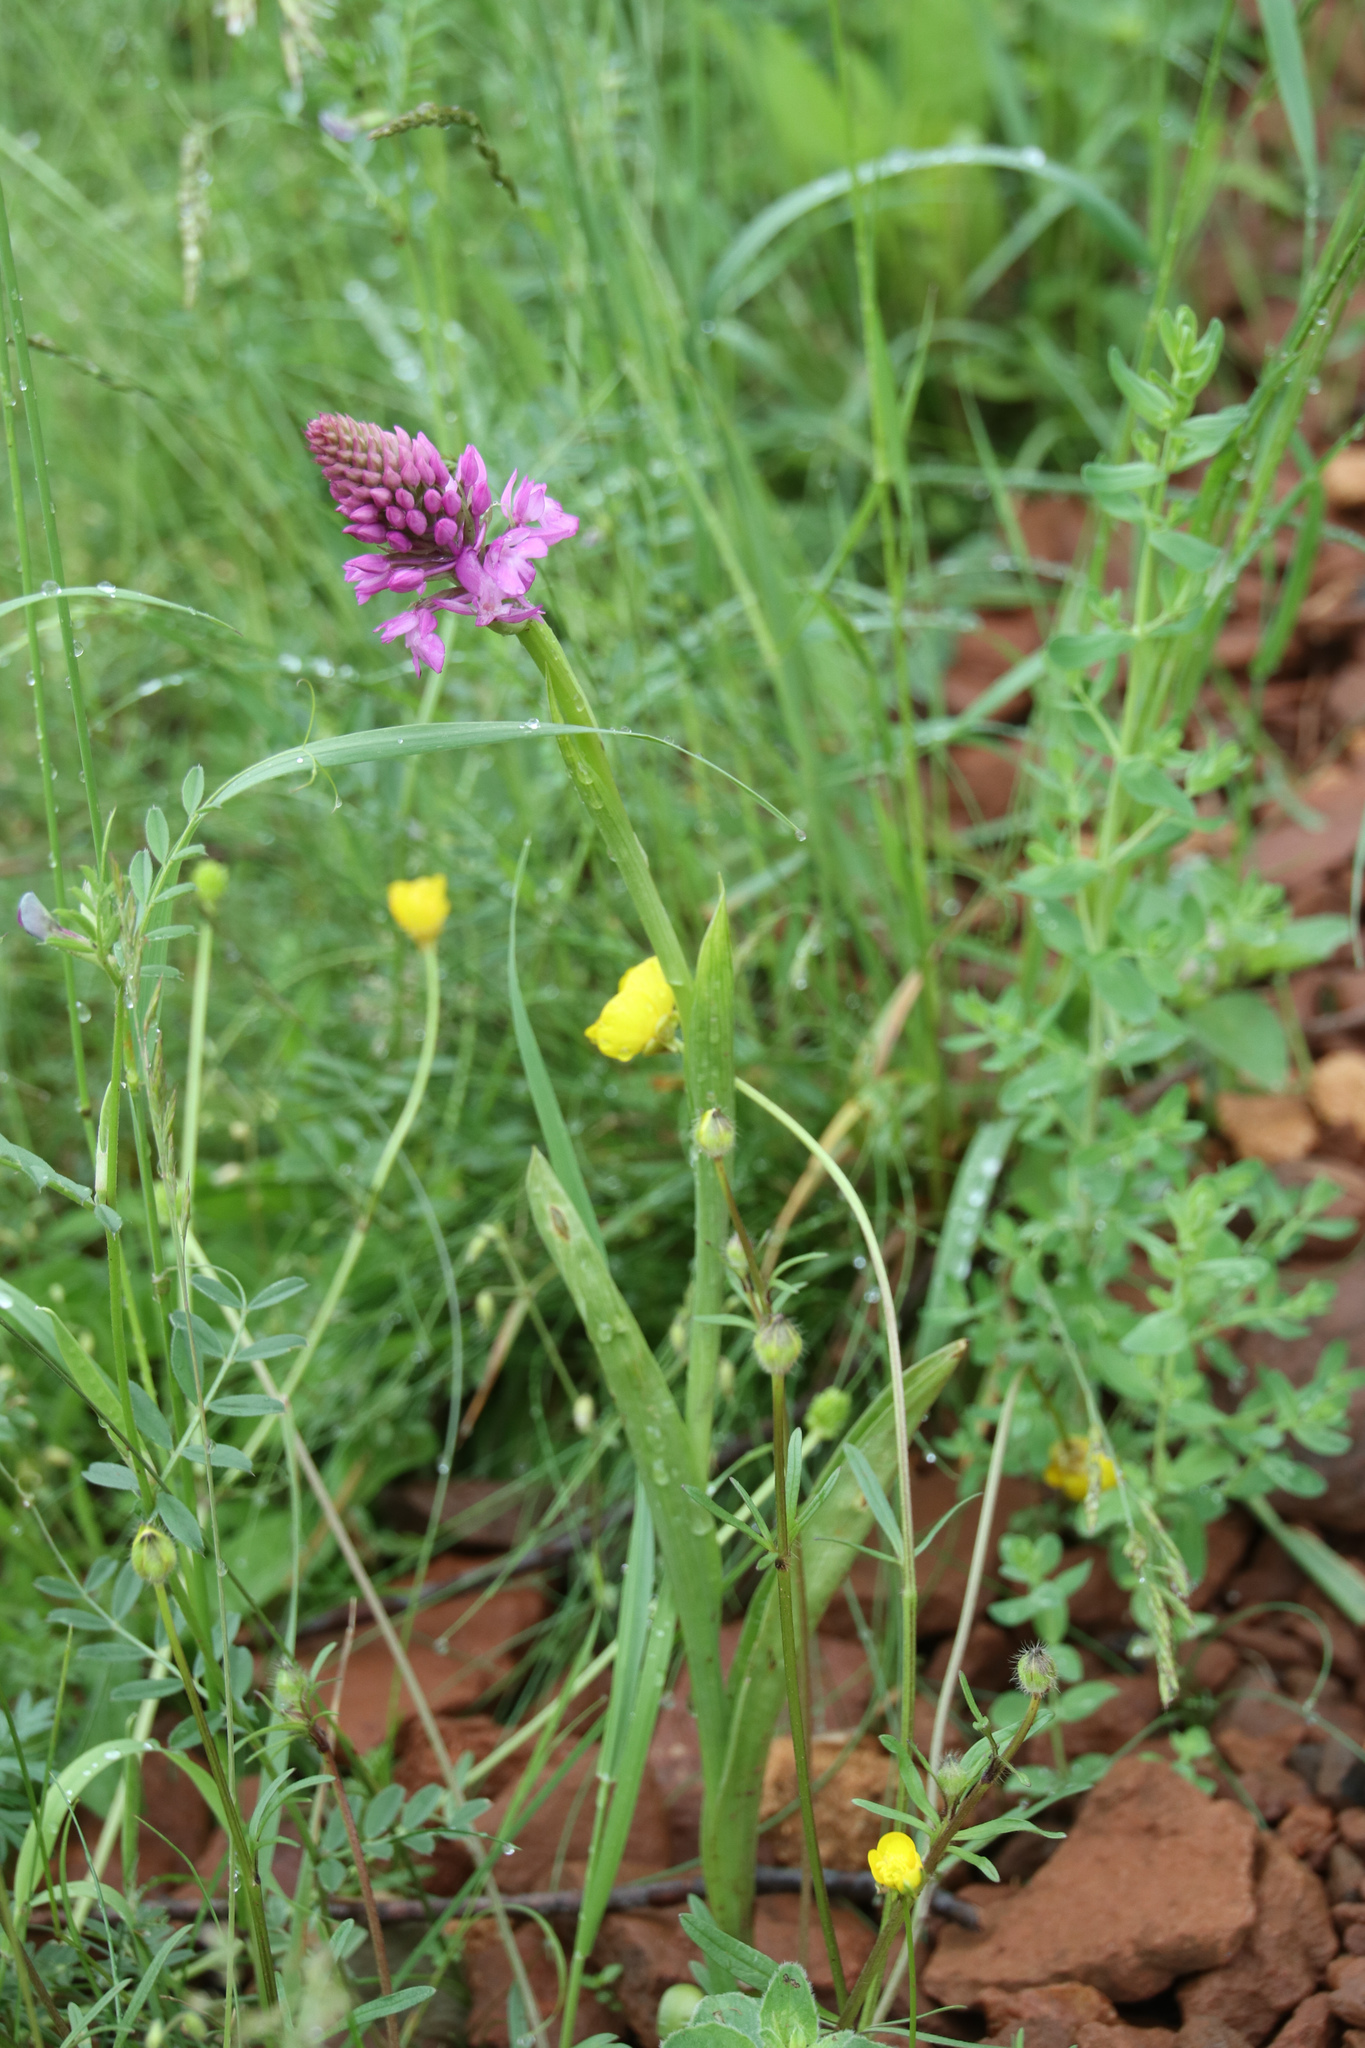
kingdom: Plantae
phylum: Tracheophyta
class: Liliopsida
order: Asparagales
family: Orchidaceae
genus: Anacamptis
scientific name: Anacamptis pyramidalis
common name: Pyramidal orchid
